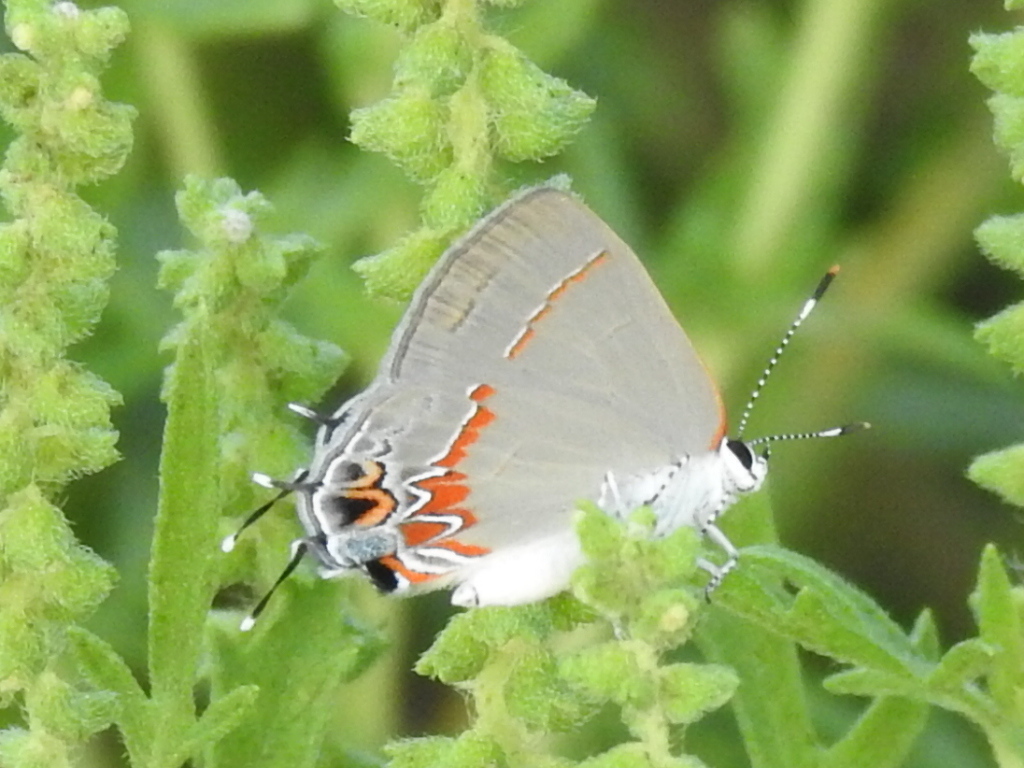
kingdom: Animalia
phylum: Arthropoda
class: Insecta
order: Lepidoptera
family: Lycaenidae
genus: Calycopis
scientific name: Calycopis isobeon
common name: Dusky-blue groundstreak
